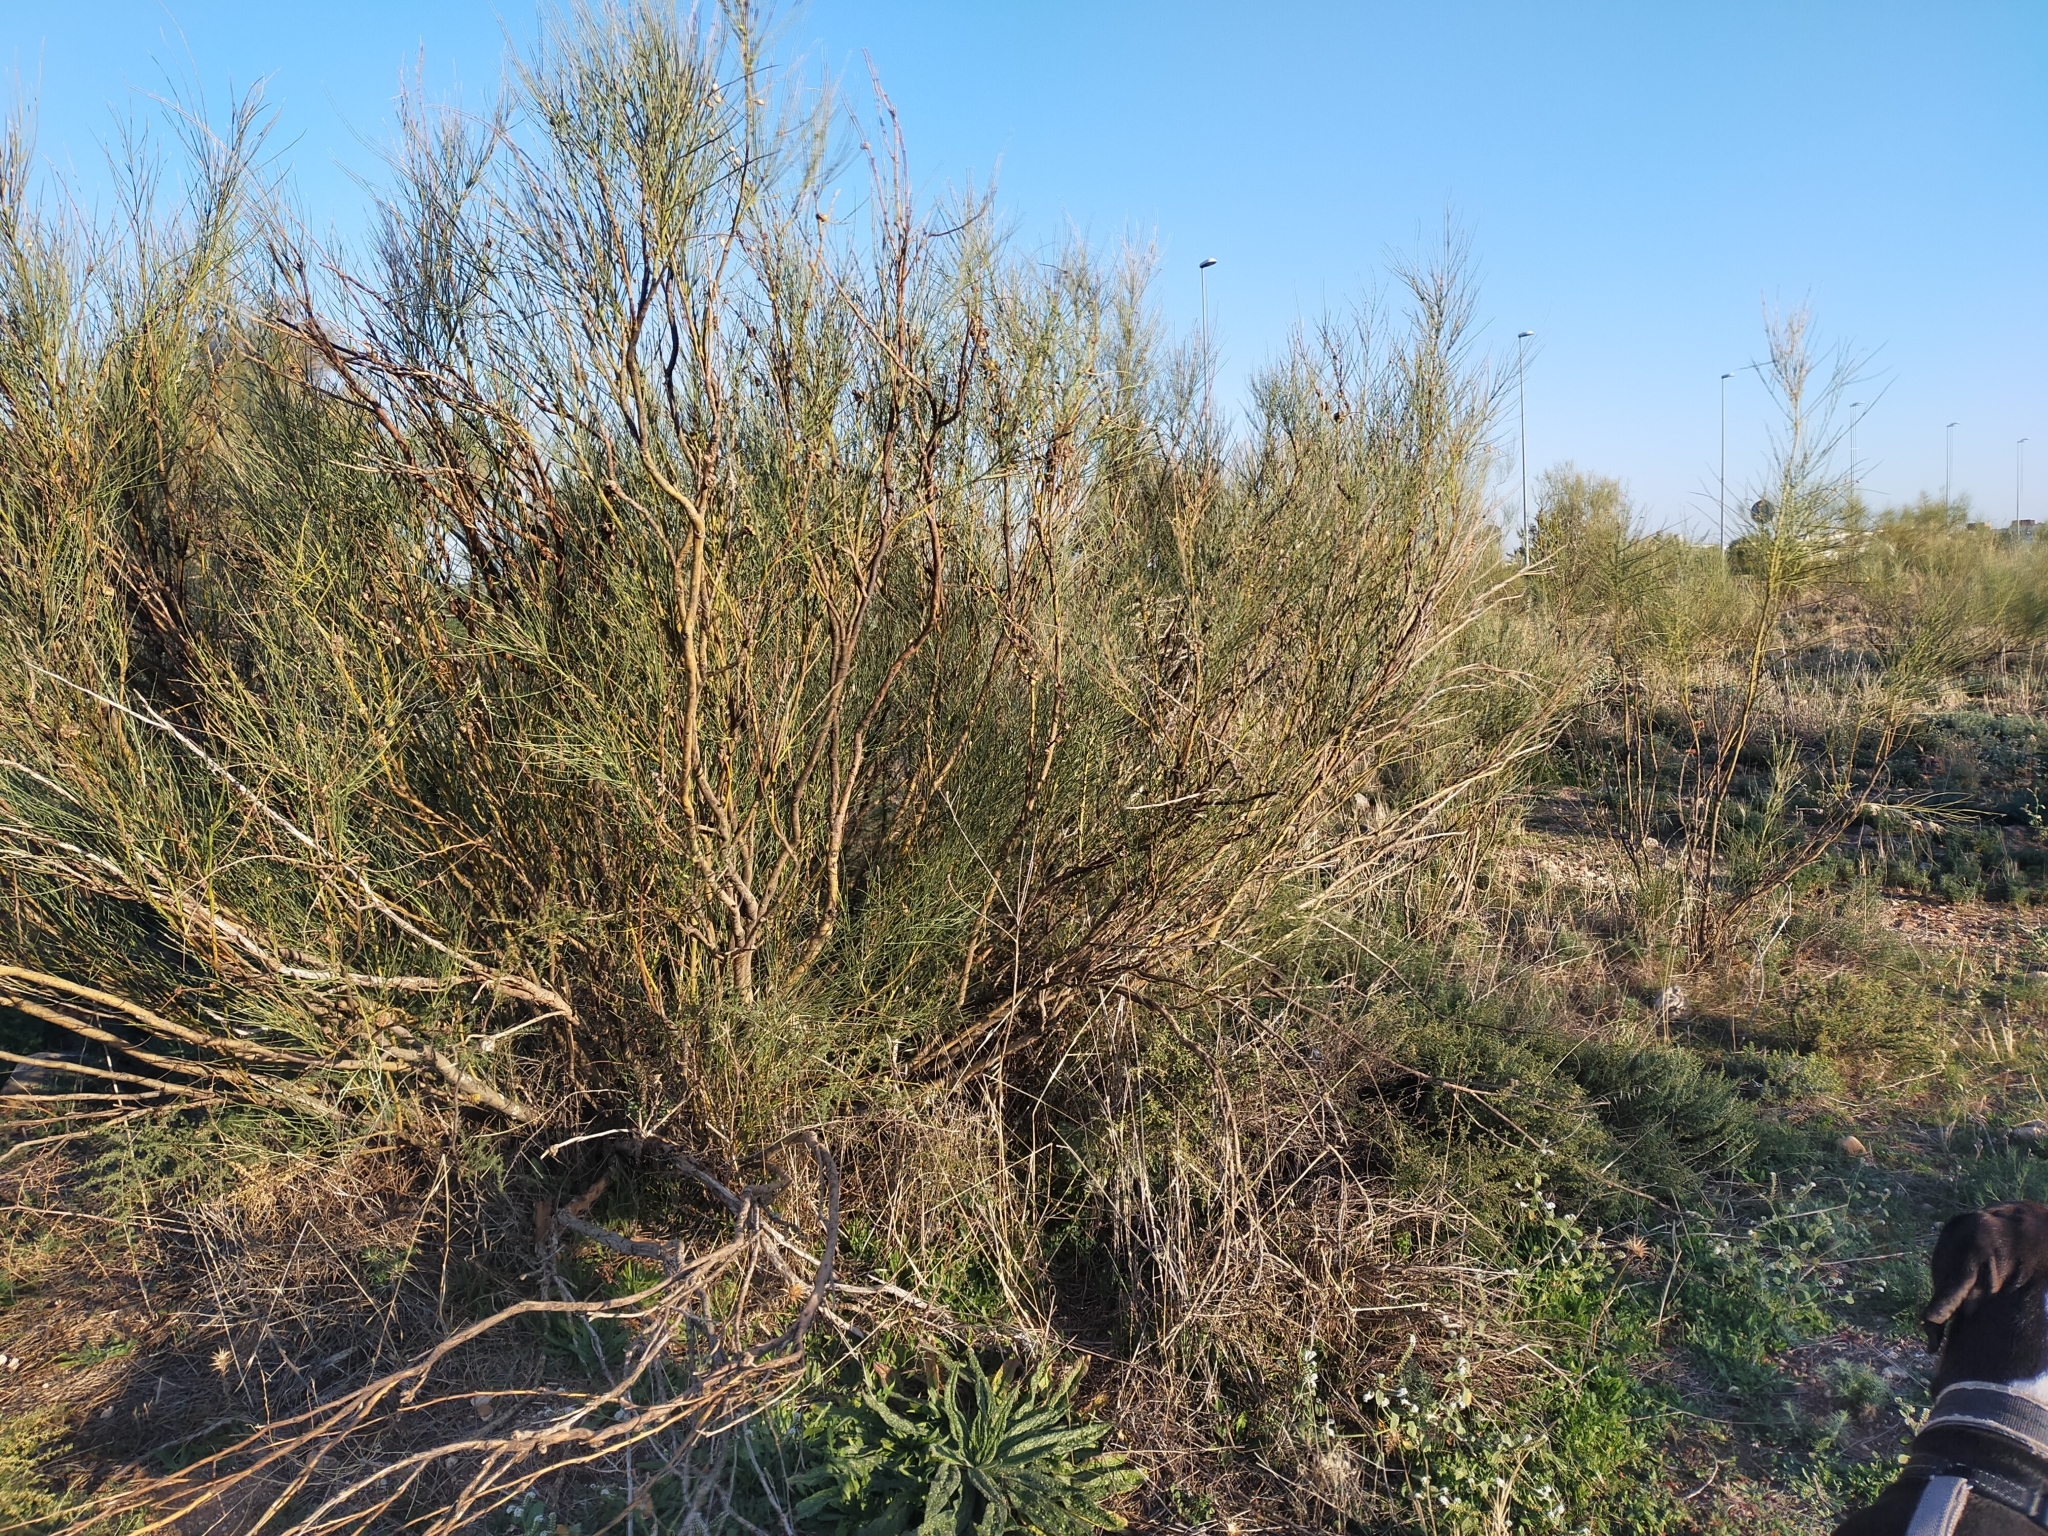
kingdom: Plantae
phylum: Tracheophyta
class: Magnoliopsida
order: Fabales
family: Fabaceae
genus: Retama
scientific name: Retama sphaerocarpa
